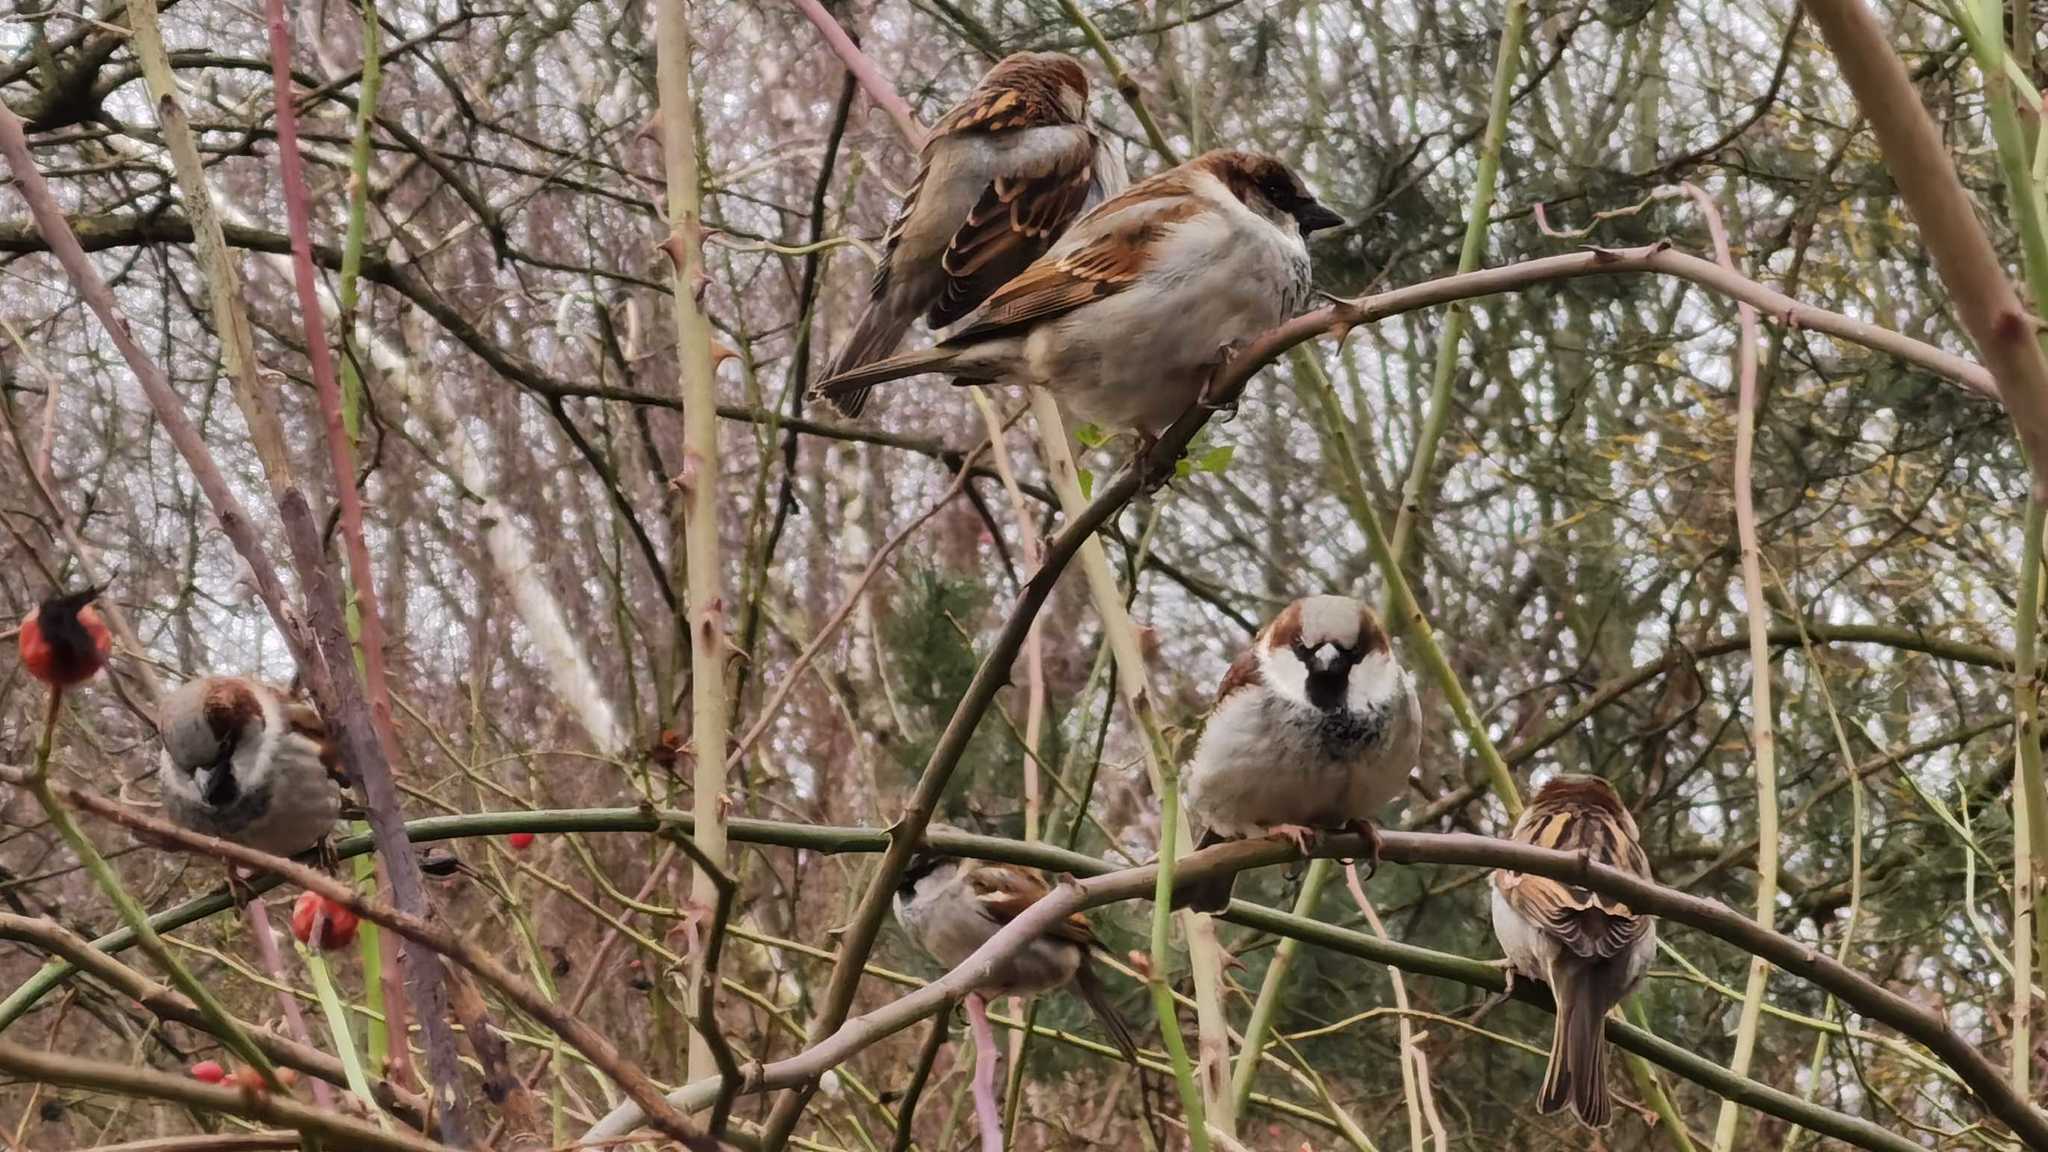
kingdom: Animalia
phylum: Chordata
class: Aves
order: Passeriformes
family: Passeridae
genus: Passer
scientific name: Passer domesticus
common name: House sparrow
